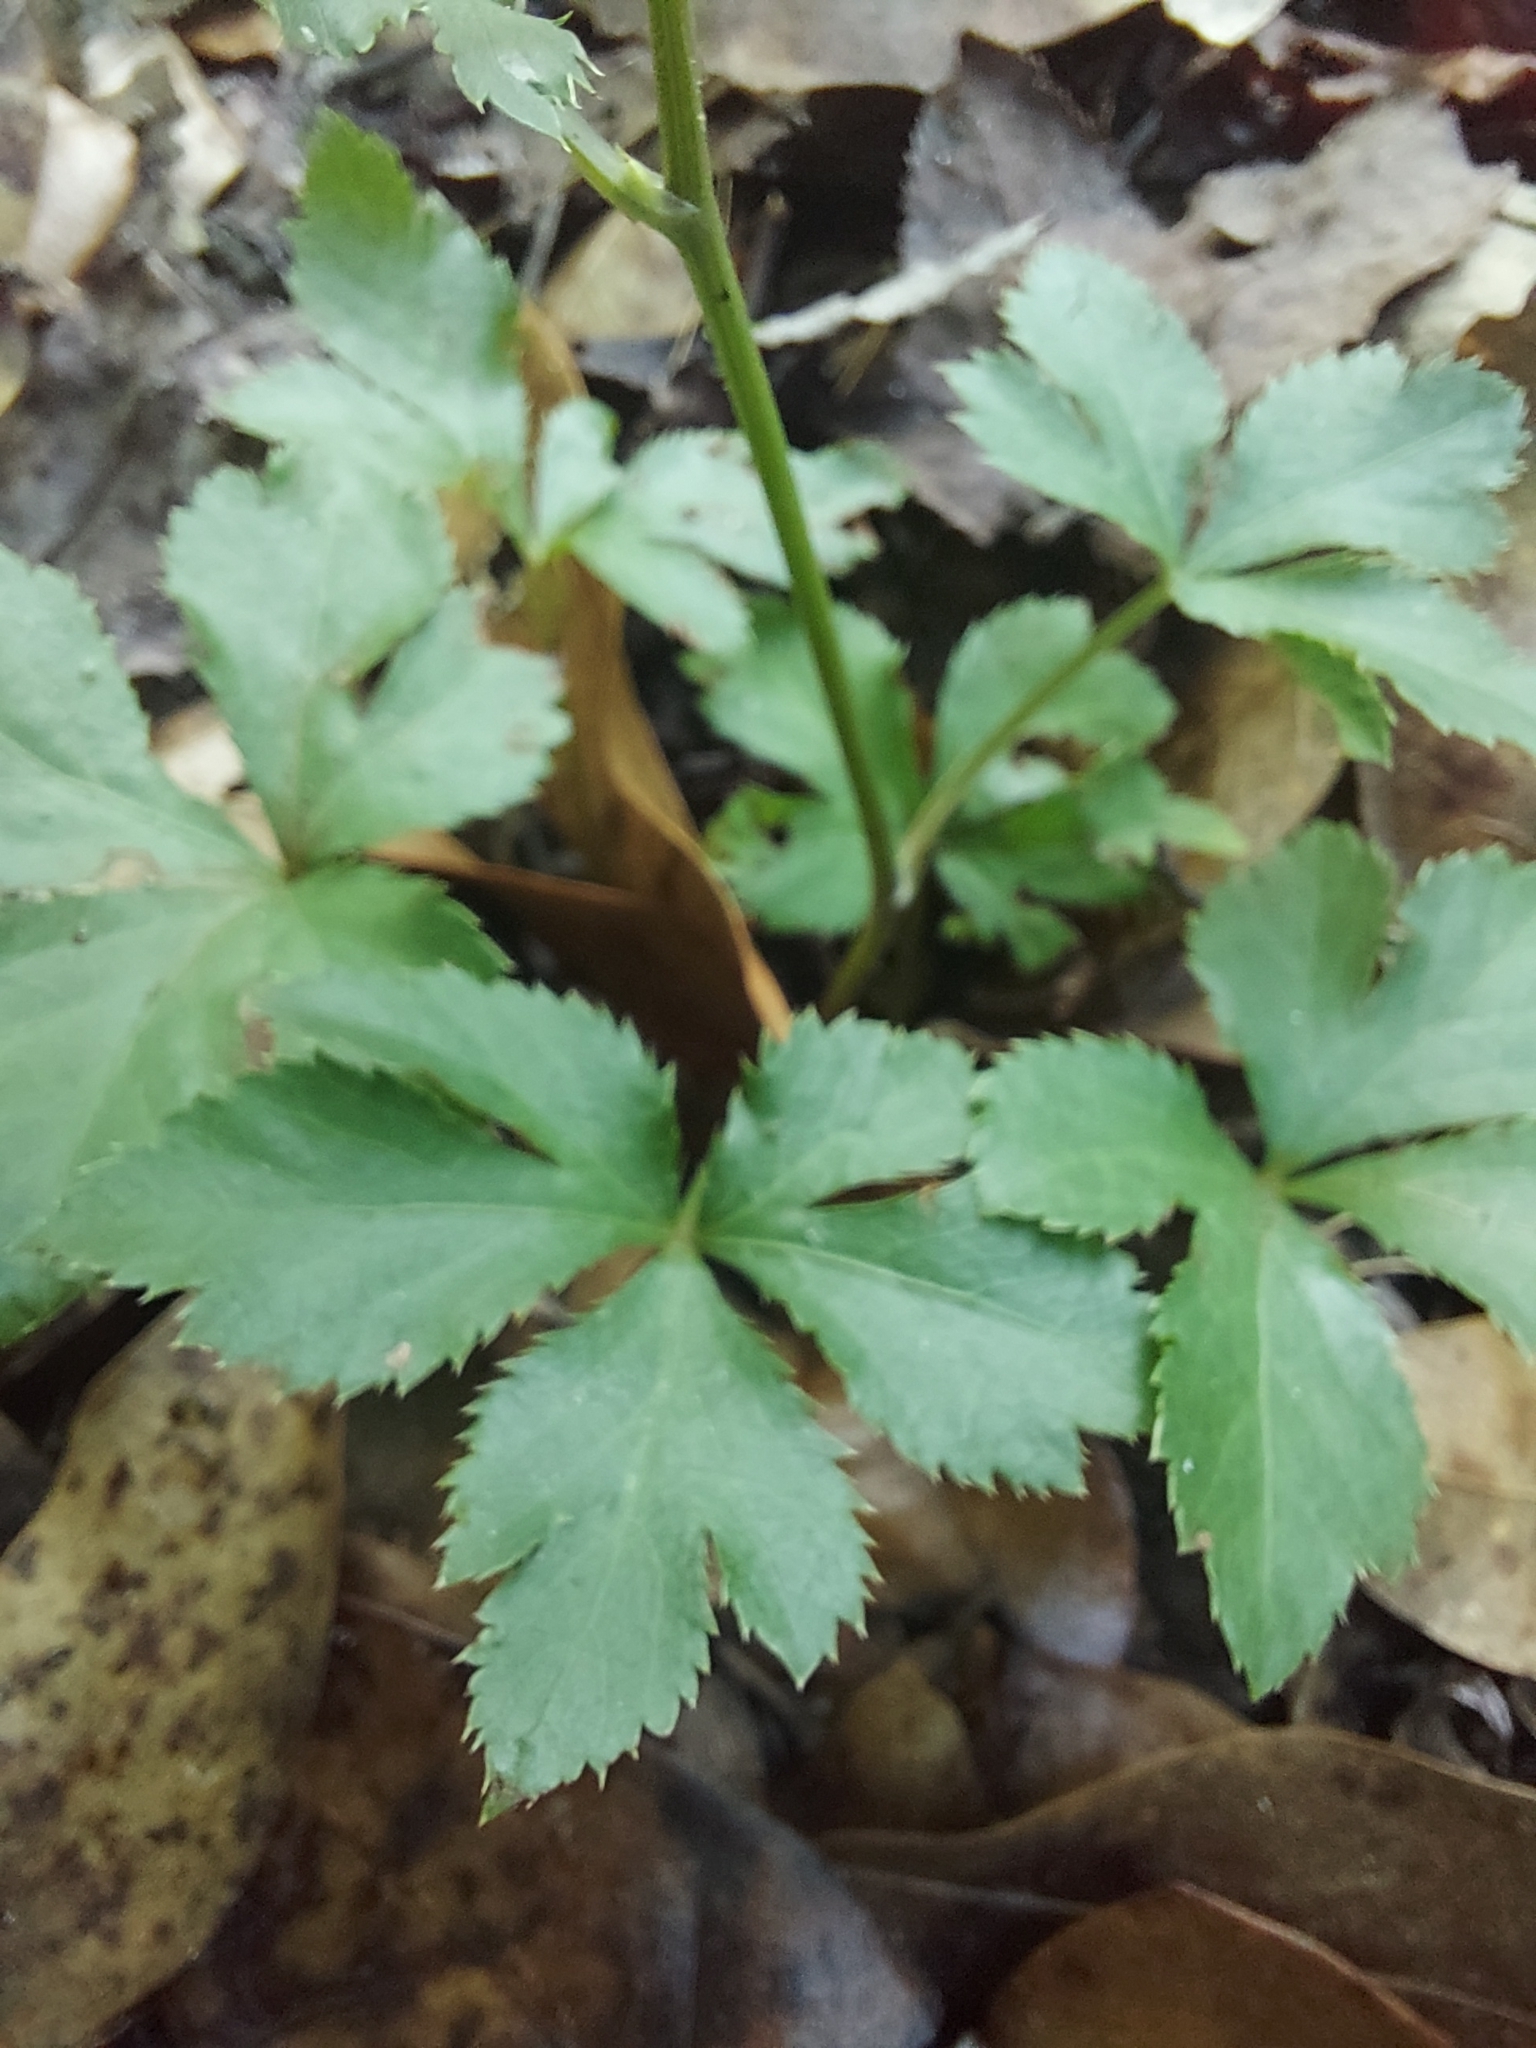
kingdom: Plantae
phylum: Tracheophyta
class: Magnoliopsida
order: Apiales
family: Apiaceae
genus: Sanicula
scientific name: Sanicula canadensis
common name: Canada sanicle
